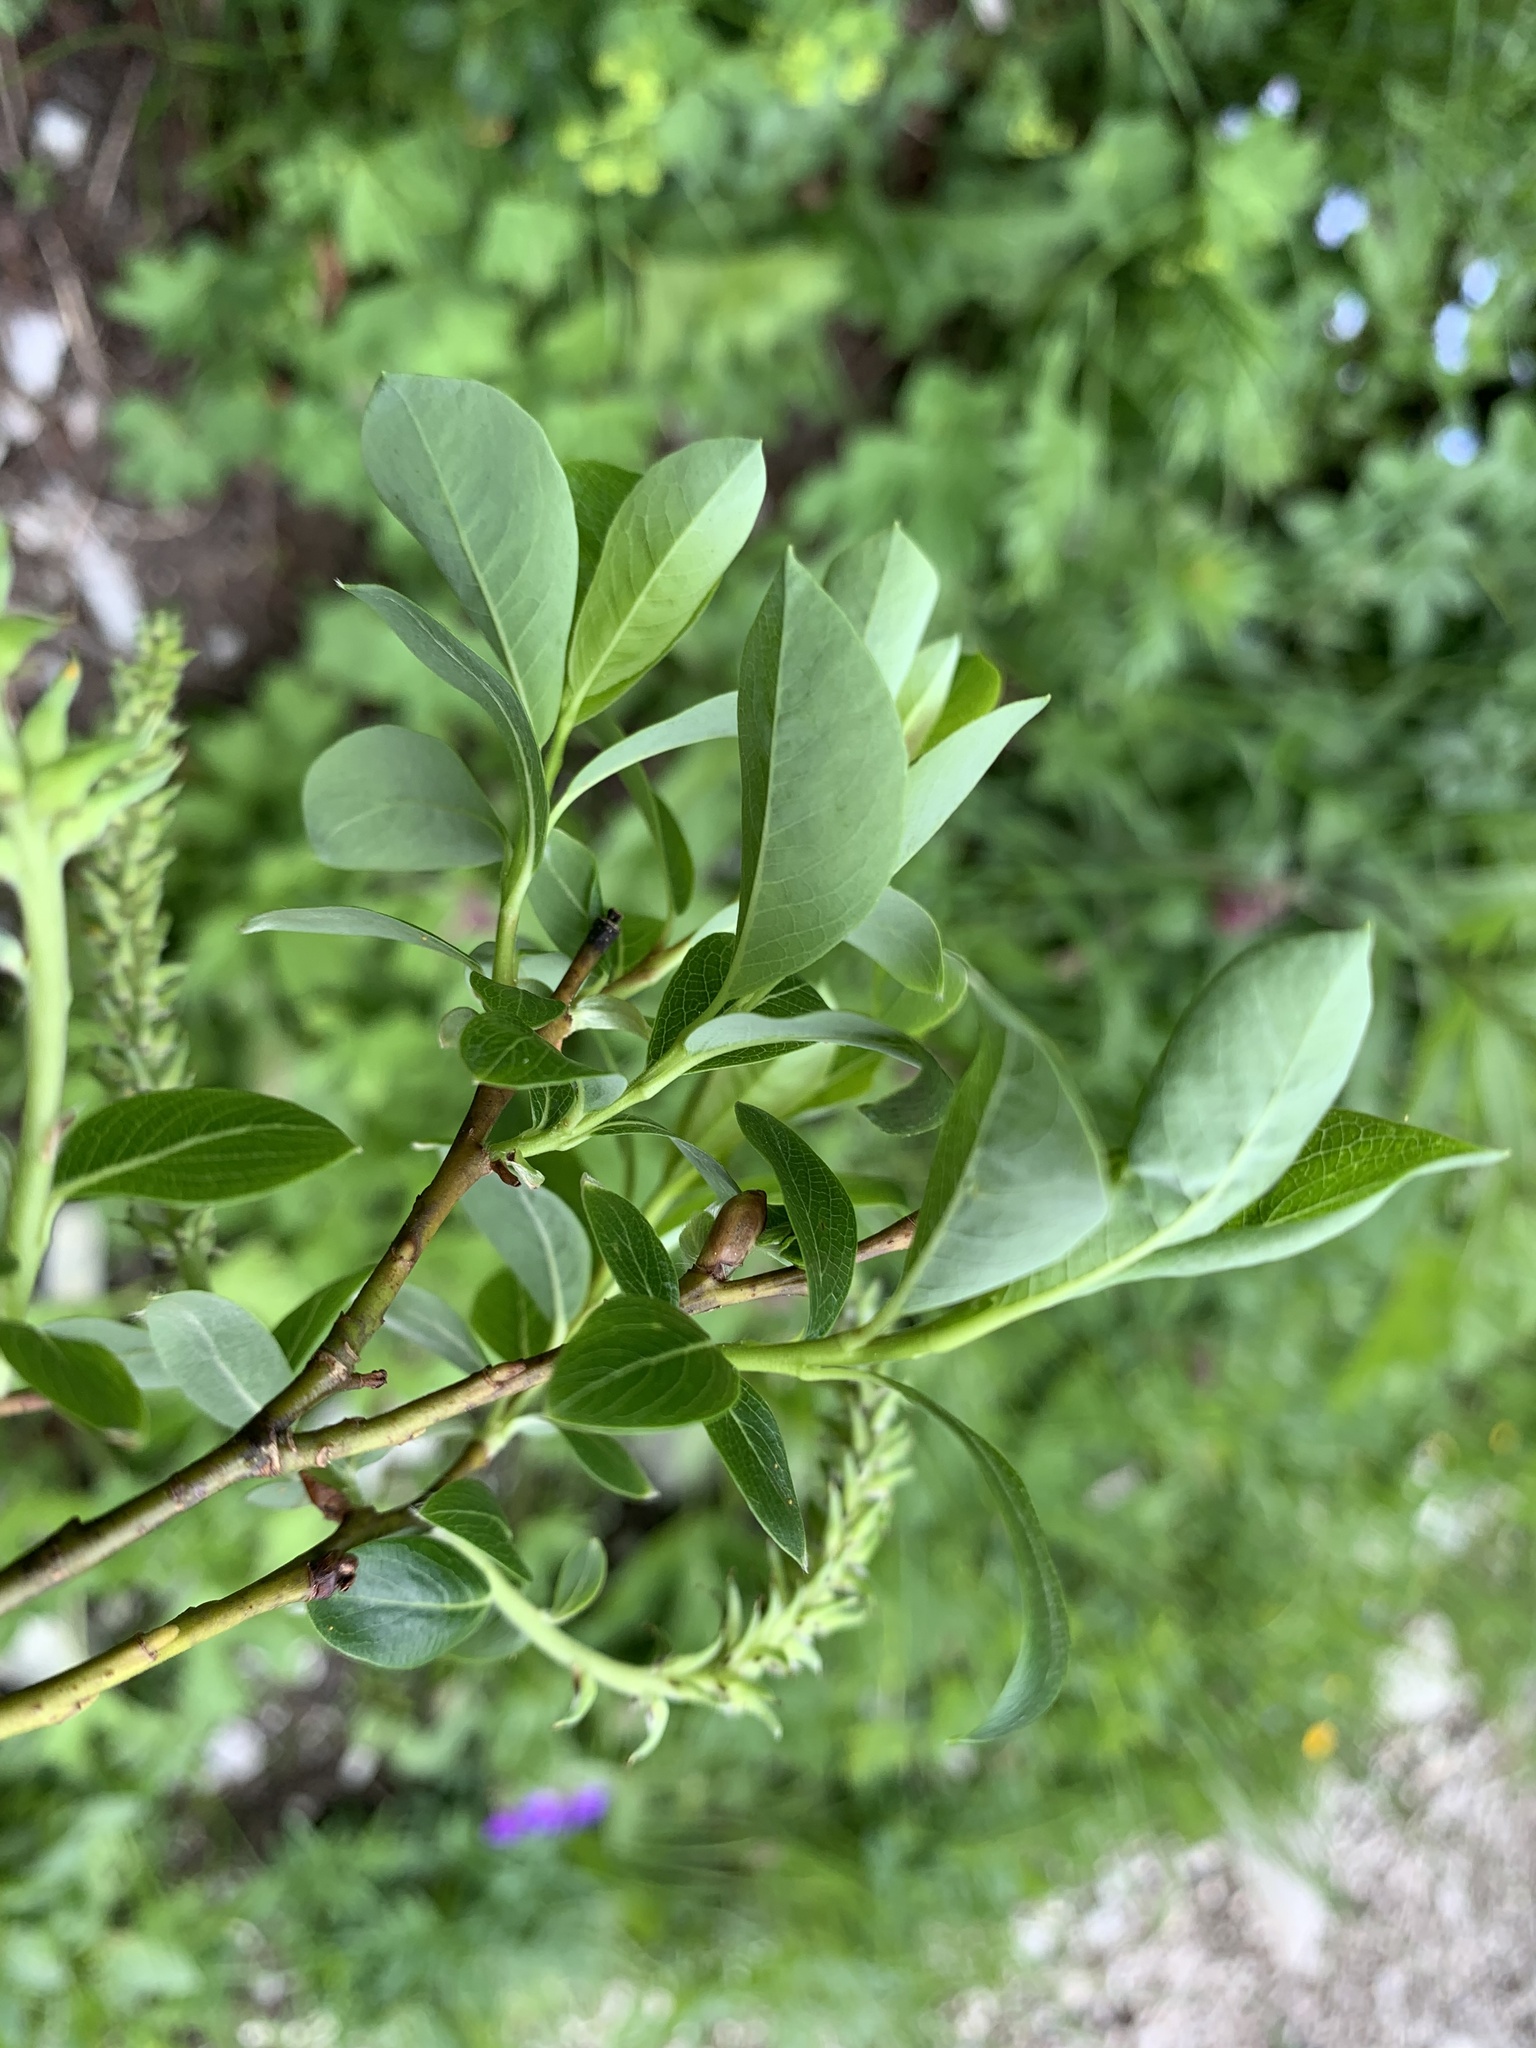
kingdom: Plantae
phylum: Tracheophyta
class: Magnoliopsida
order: Malpighiales
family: Salicaceae
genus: Salix
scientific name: Salix waldsteiniana
